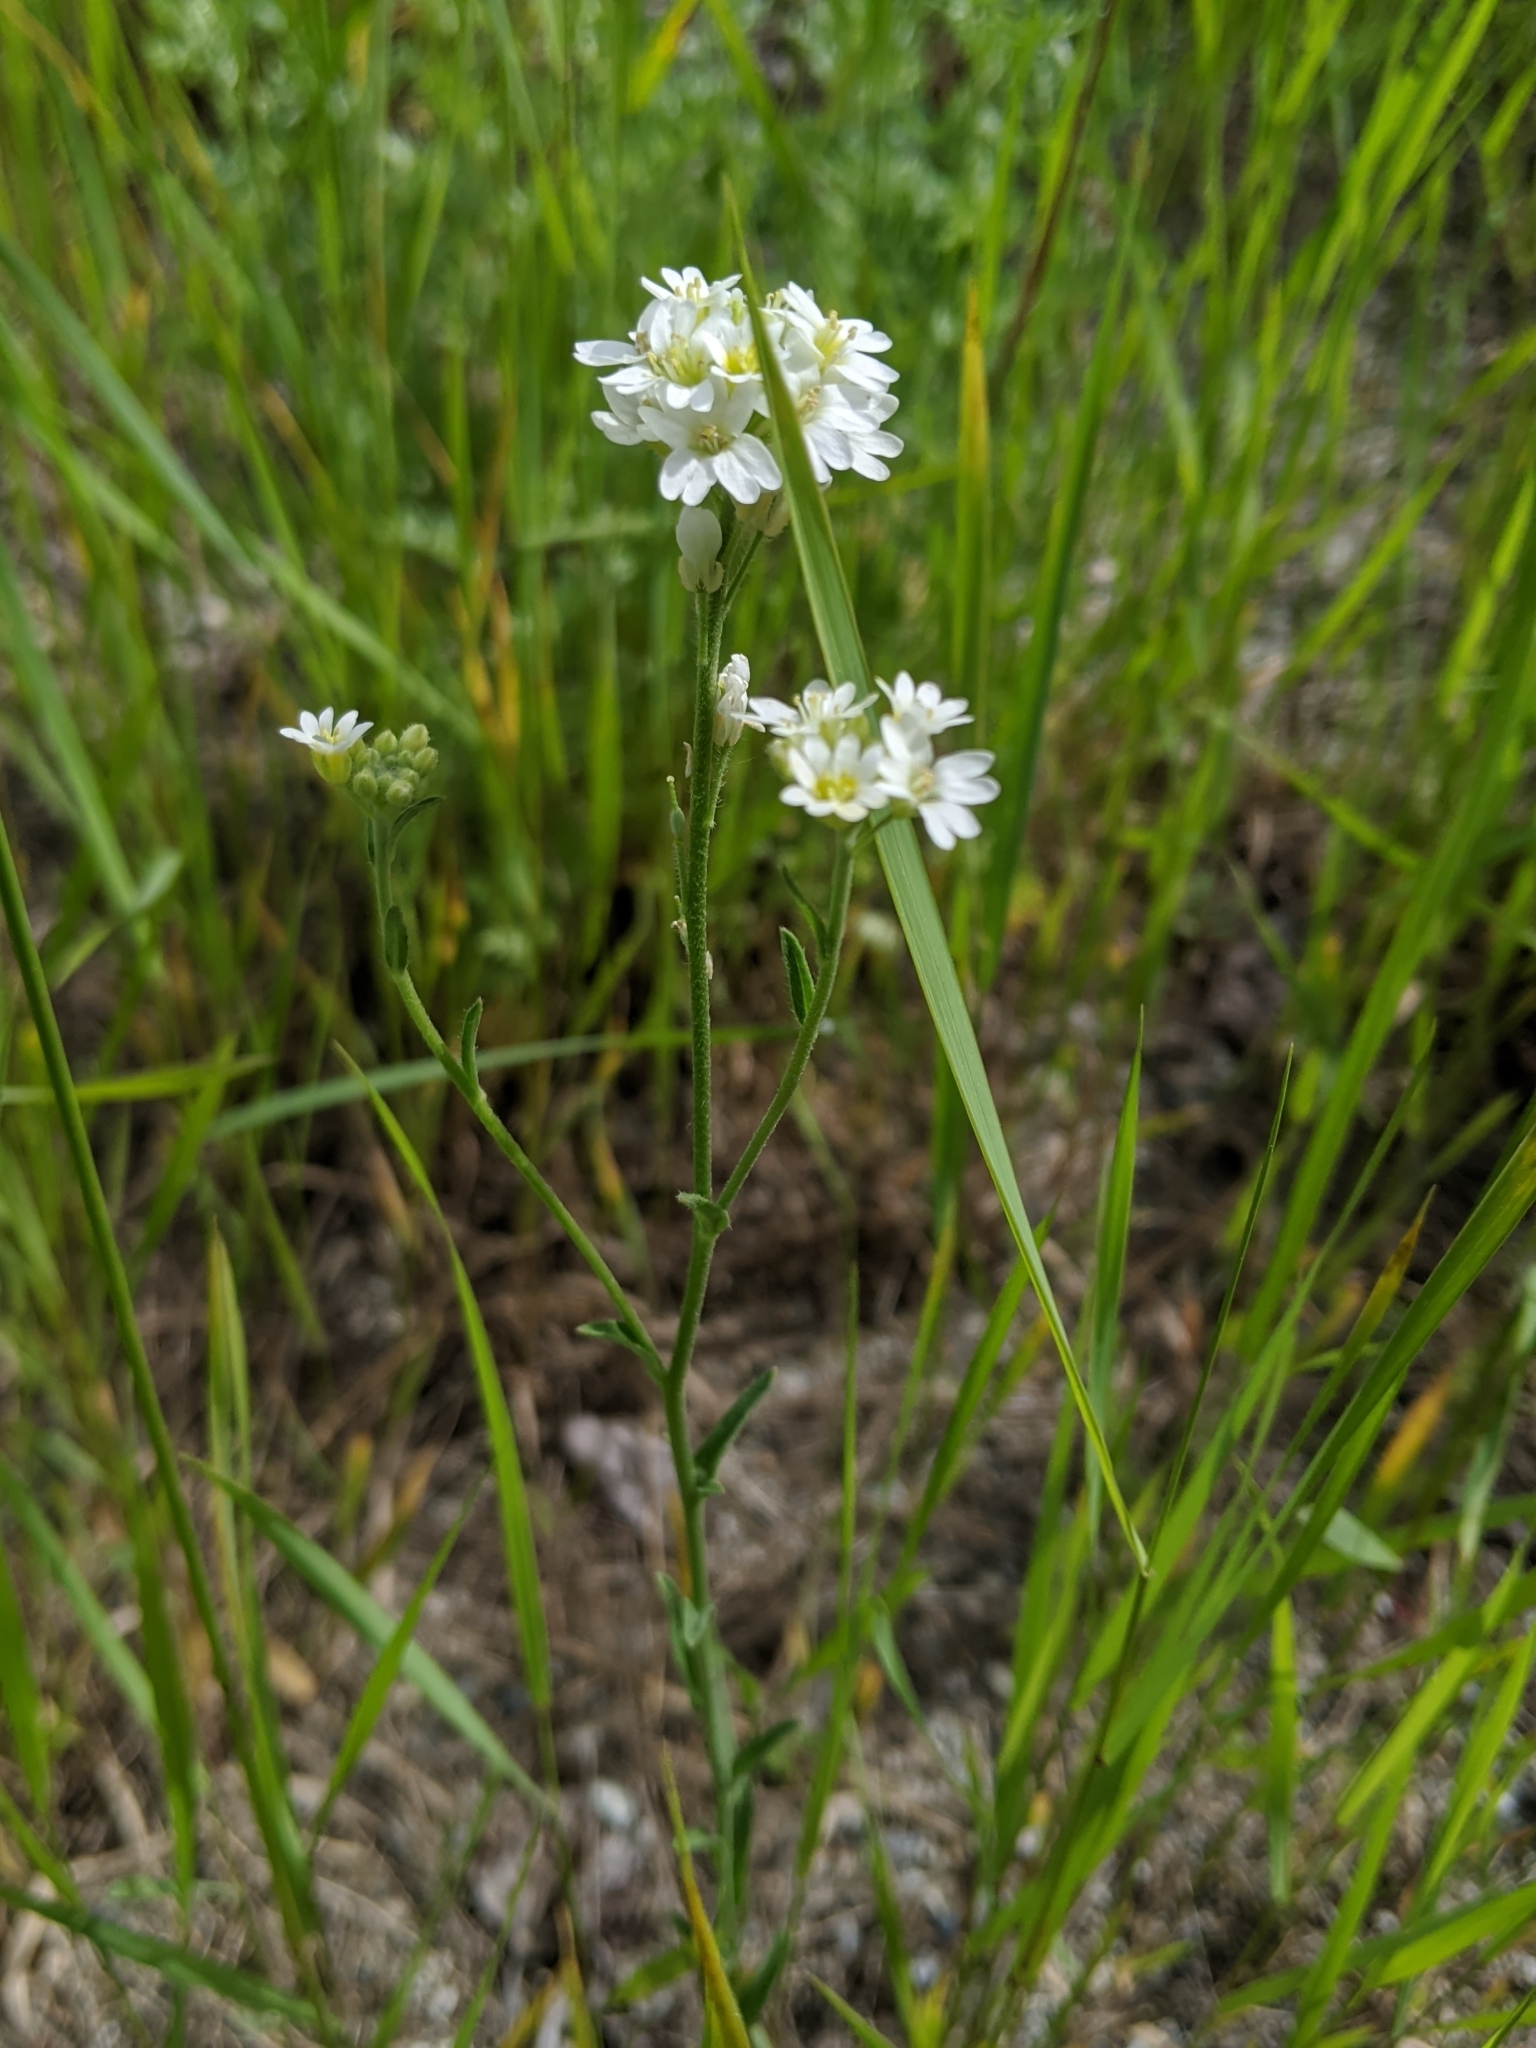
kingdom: Plantae
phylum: Tracheophyta
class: Magnoliopsida
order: Brassicales
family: Brassicaceae
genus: Berteroa
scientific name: Berteroa incana
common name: Hoary alison
